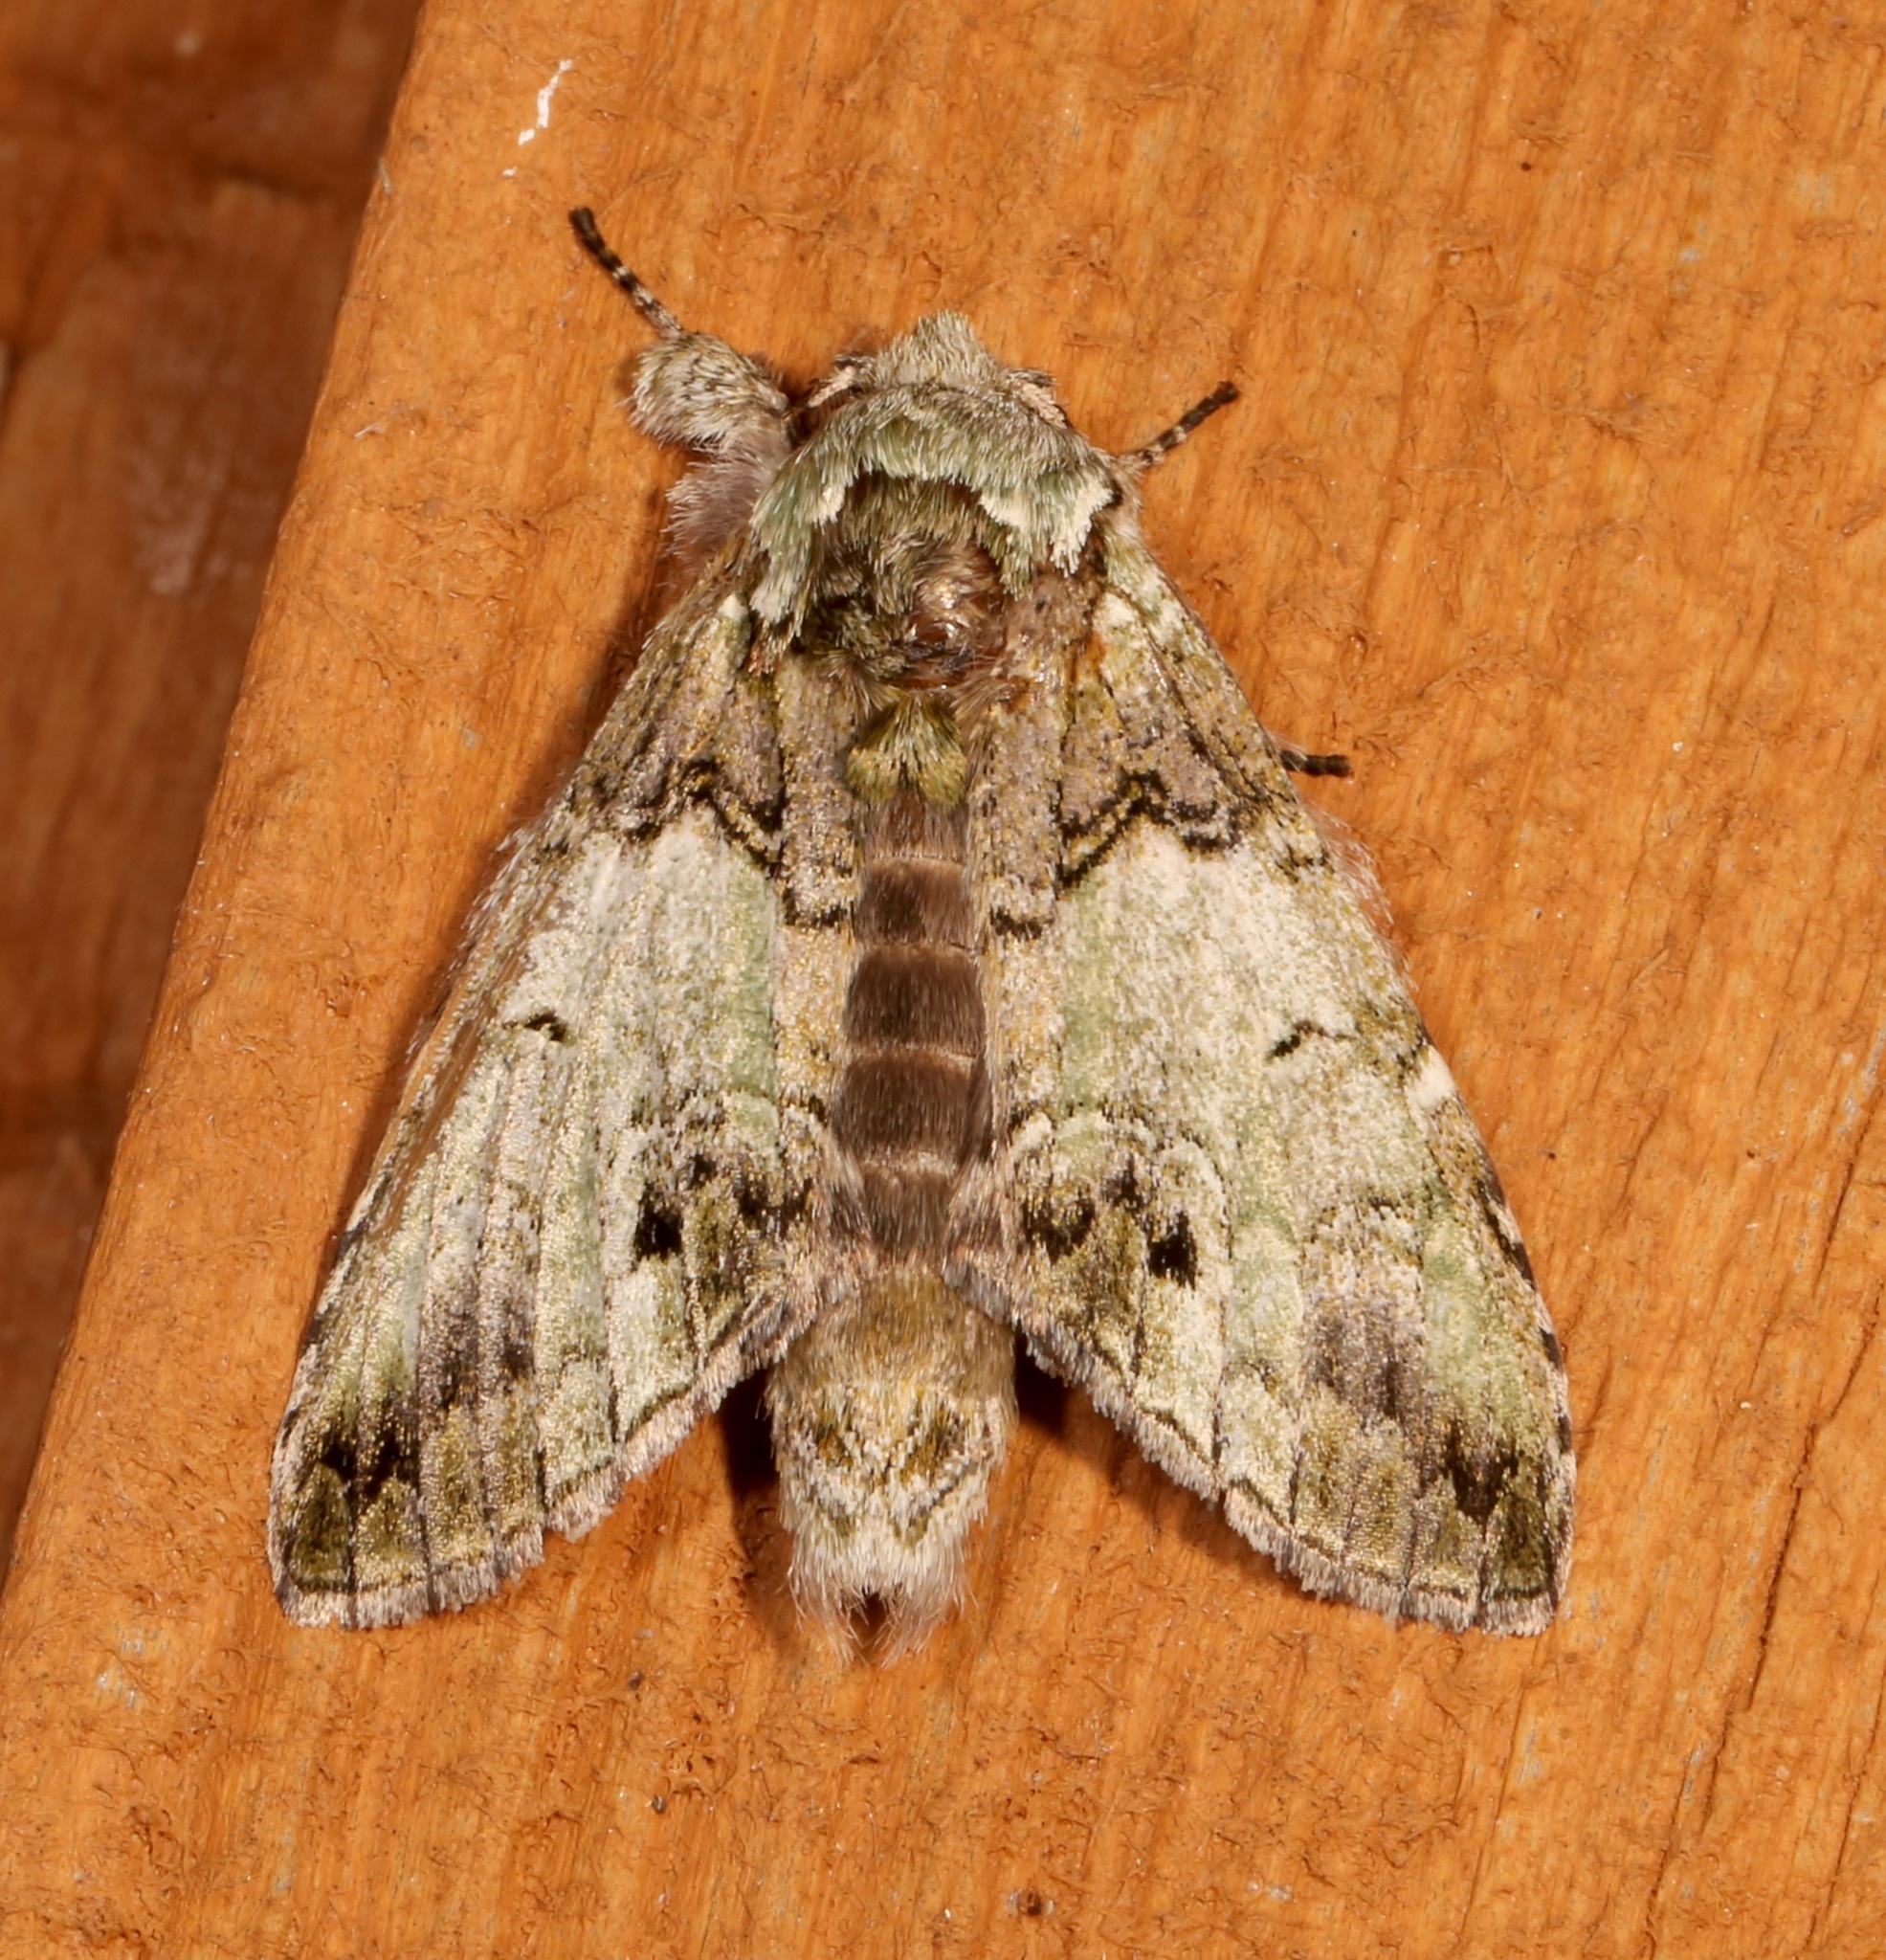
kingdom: Animalia
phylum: Arthropoda
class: Insecta
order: Lepidoptera
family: Notodontidae
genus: Macrurocampa
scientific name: Macrurocampa marthesia
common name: Mottled prominent
